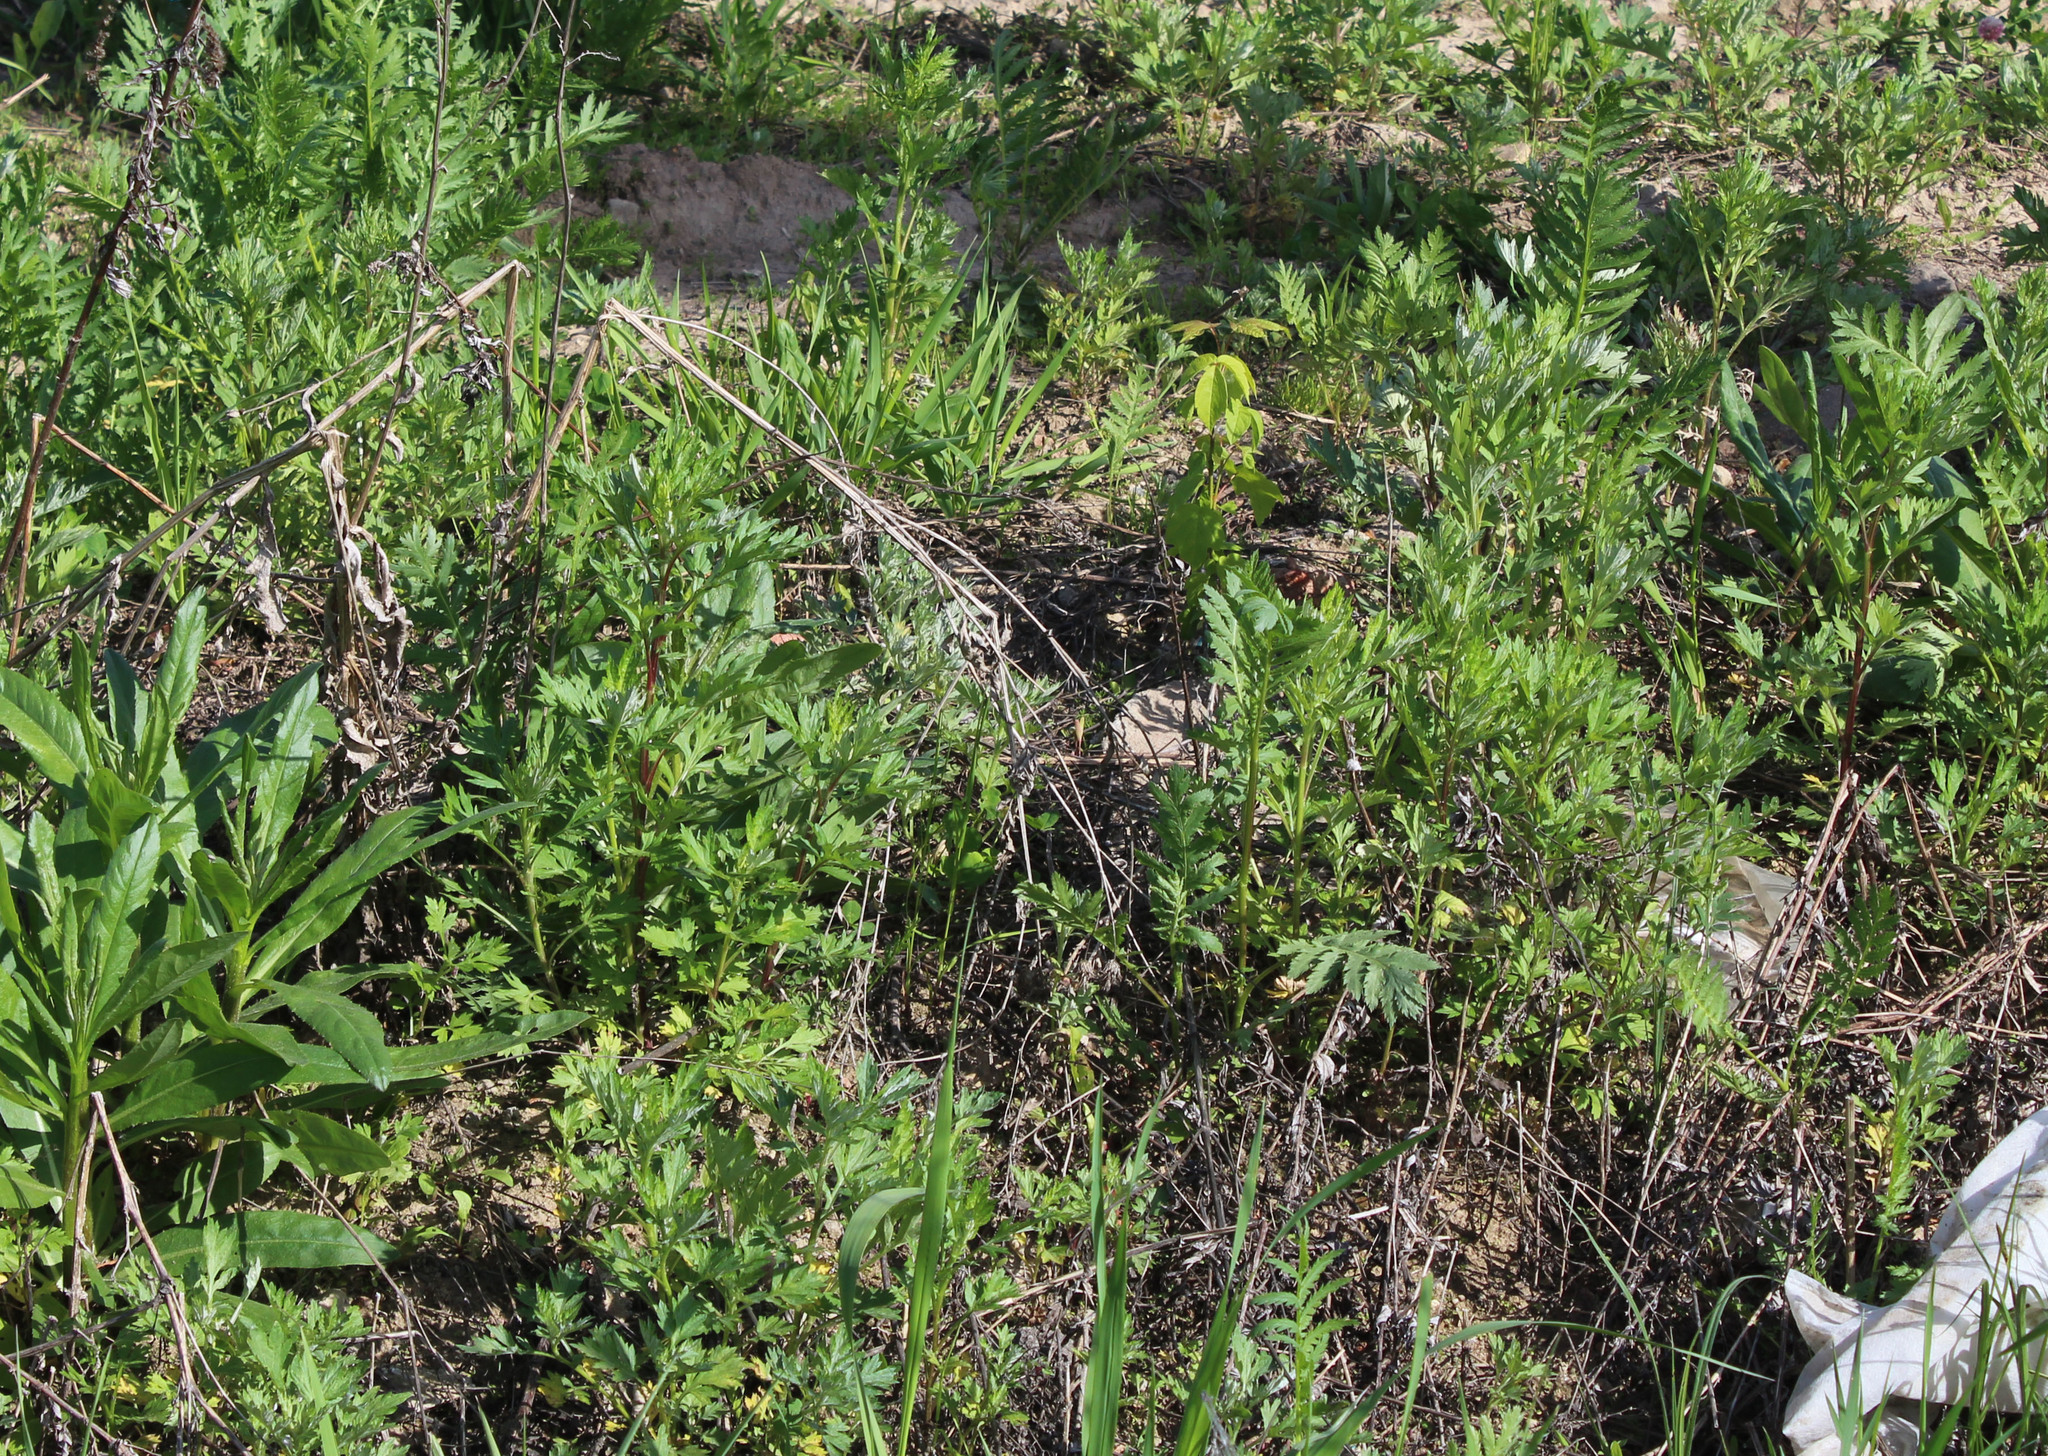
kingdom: Plantae
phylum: Tracheophyta
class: Magnoliopsida
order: Asterales
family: Asteraceae
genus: Artemisia
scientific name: Artemisia vulgaris
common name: Mugwort
